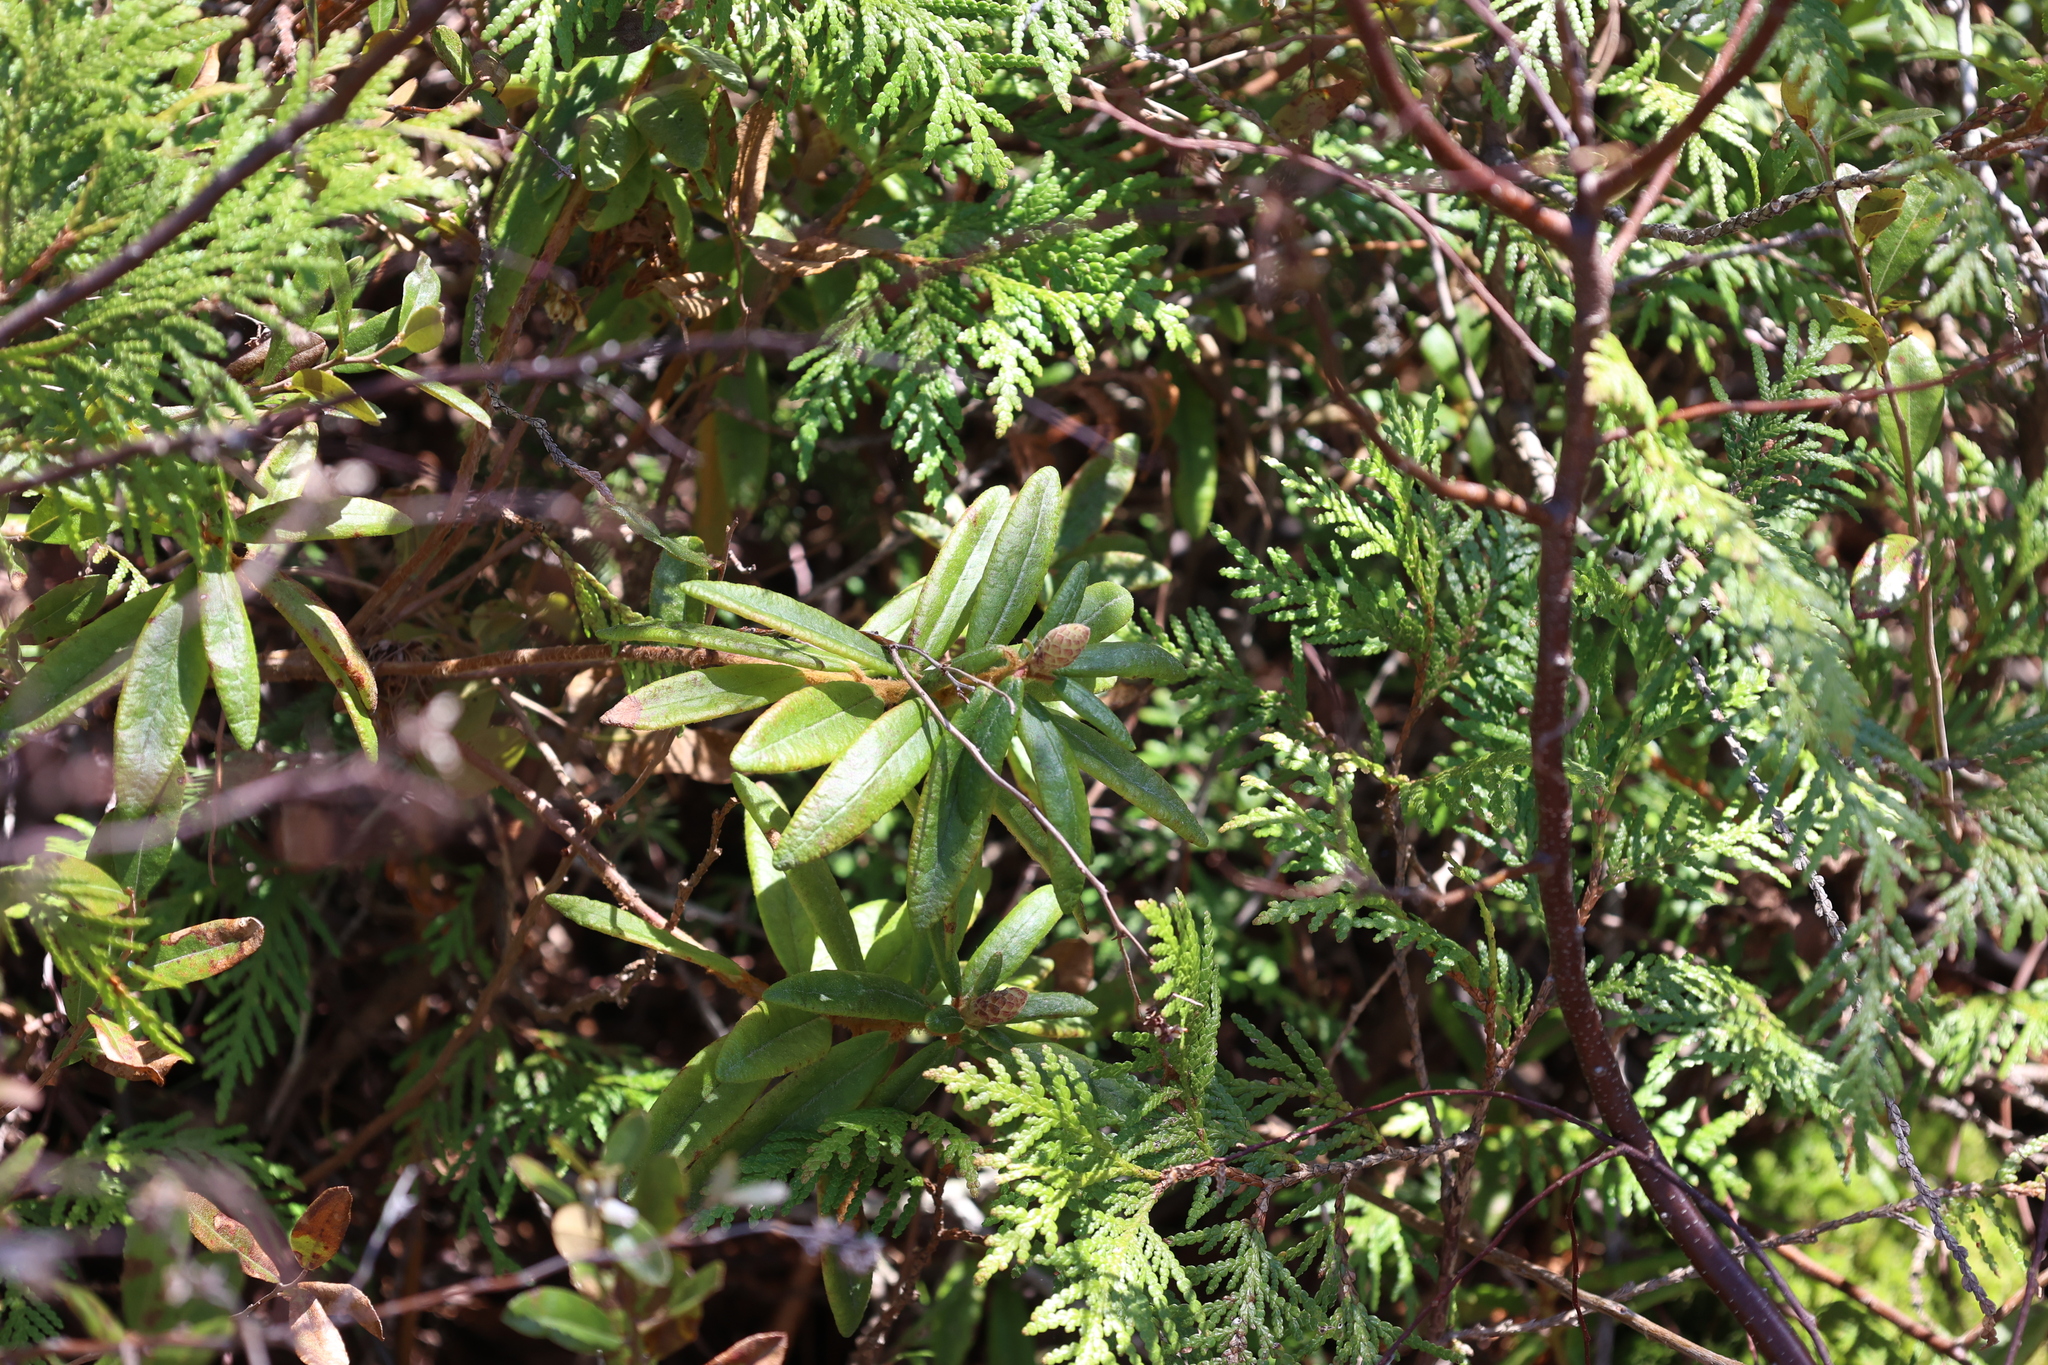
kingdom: Plantae
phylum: Tracheophyta
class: Magnoliopsida
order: Ericales
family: Ericaceae
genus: Rhododendron
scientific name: Rhododendron groenlandicum
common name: Bog labrador tea
